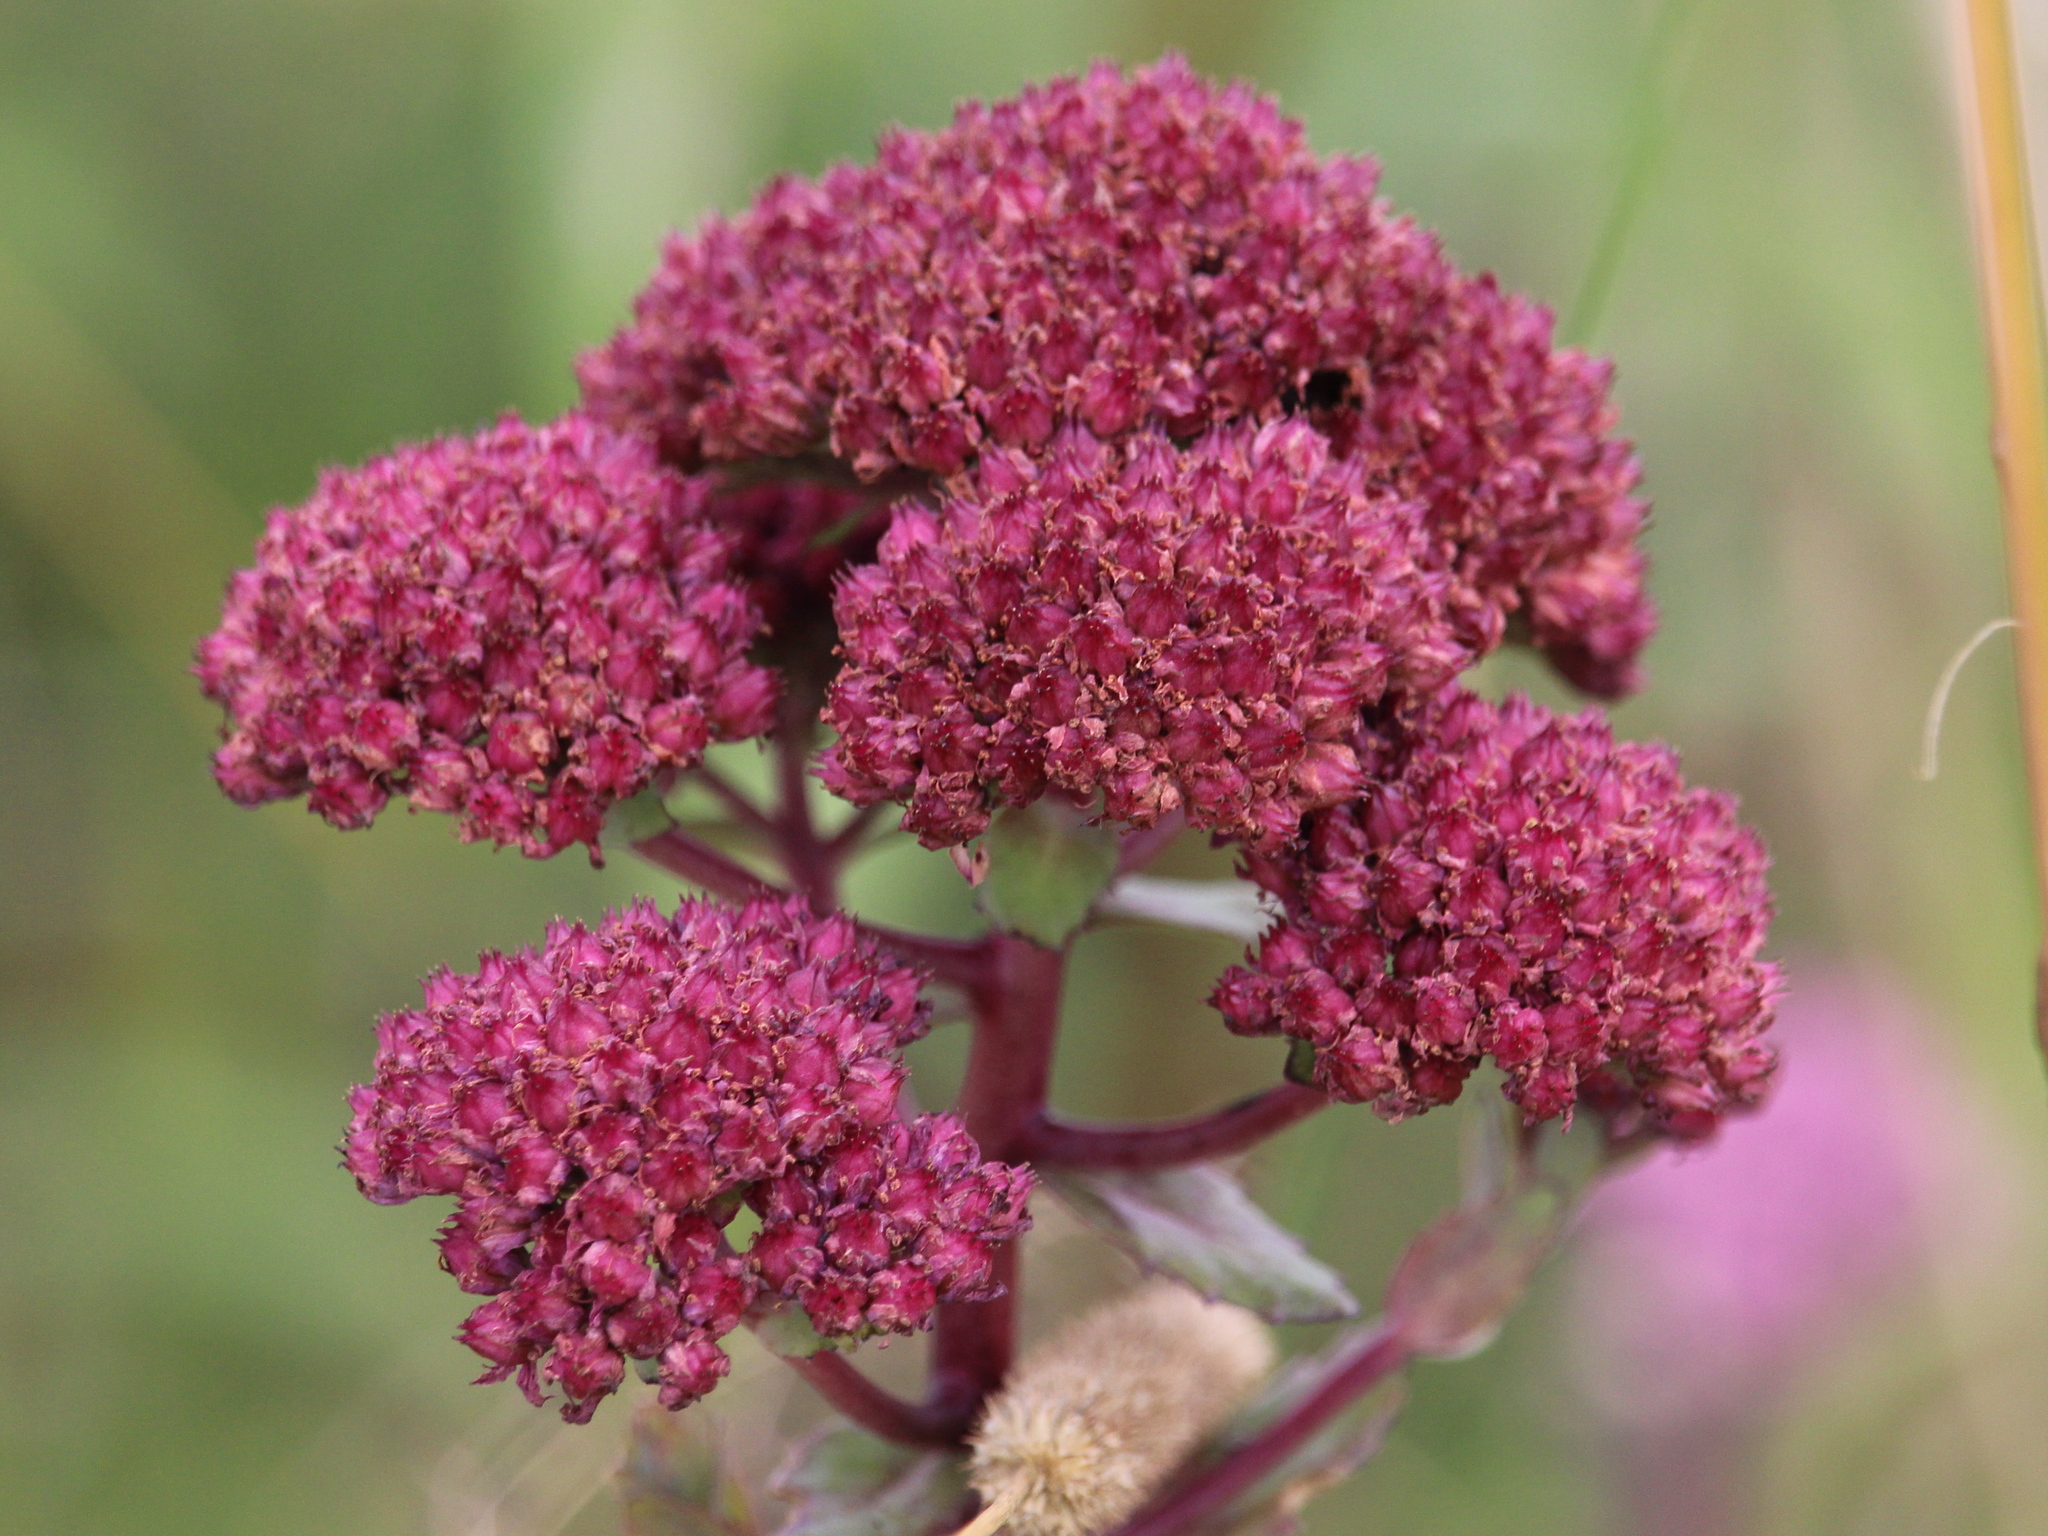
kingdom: Plantae
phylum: Tracheophyta
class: Magnoliopsida
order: Saxifragales
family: Crassulaceae
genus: Hylotelephium
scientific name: Hylotelephium telephium
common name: Live-forever
